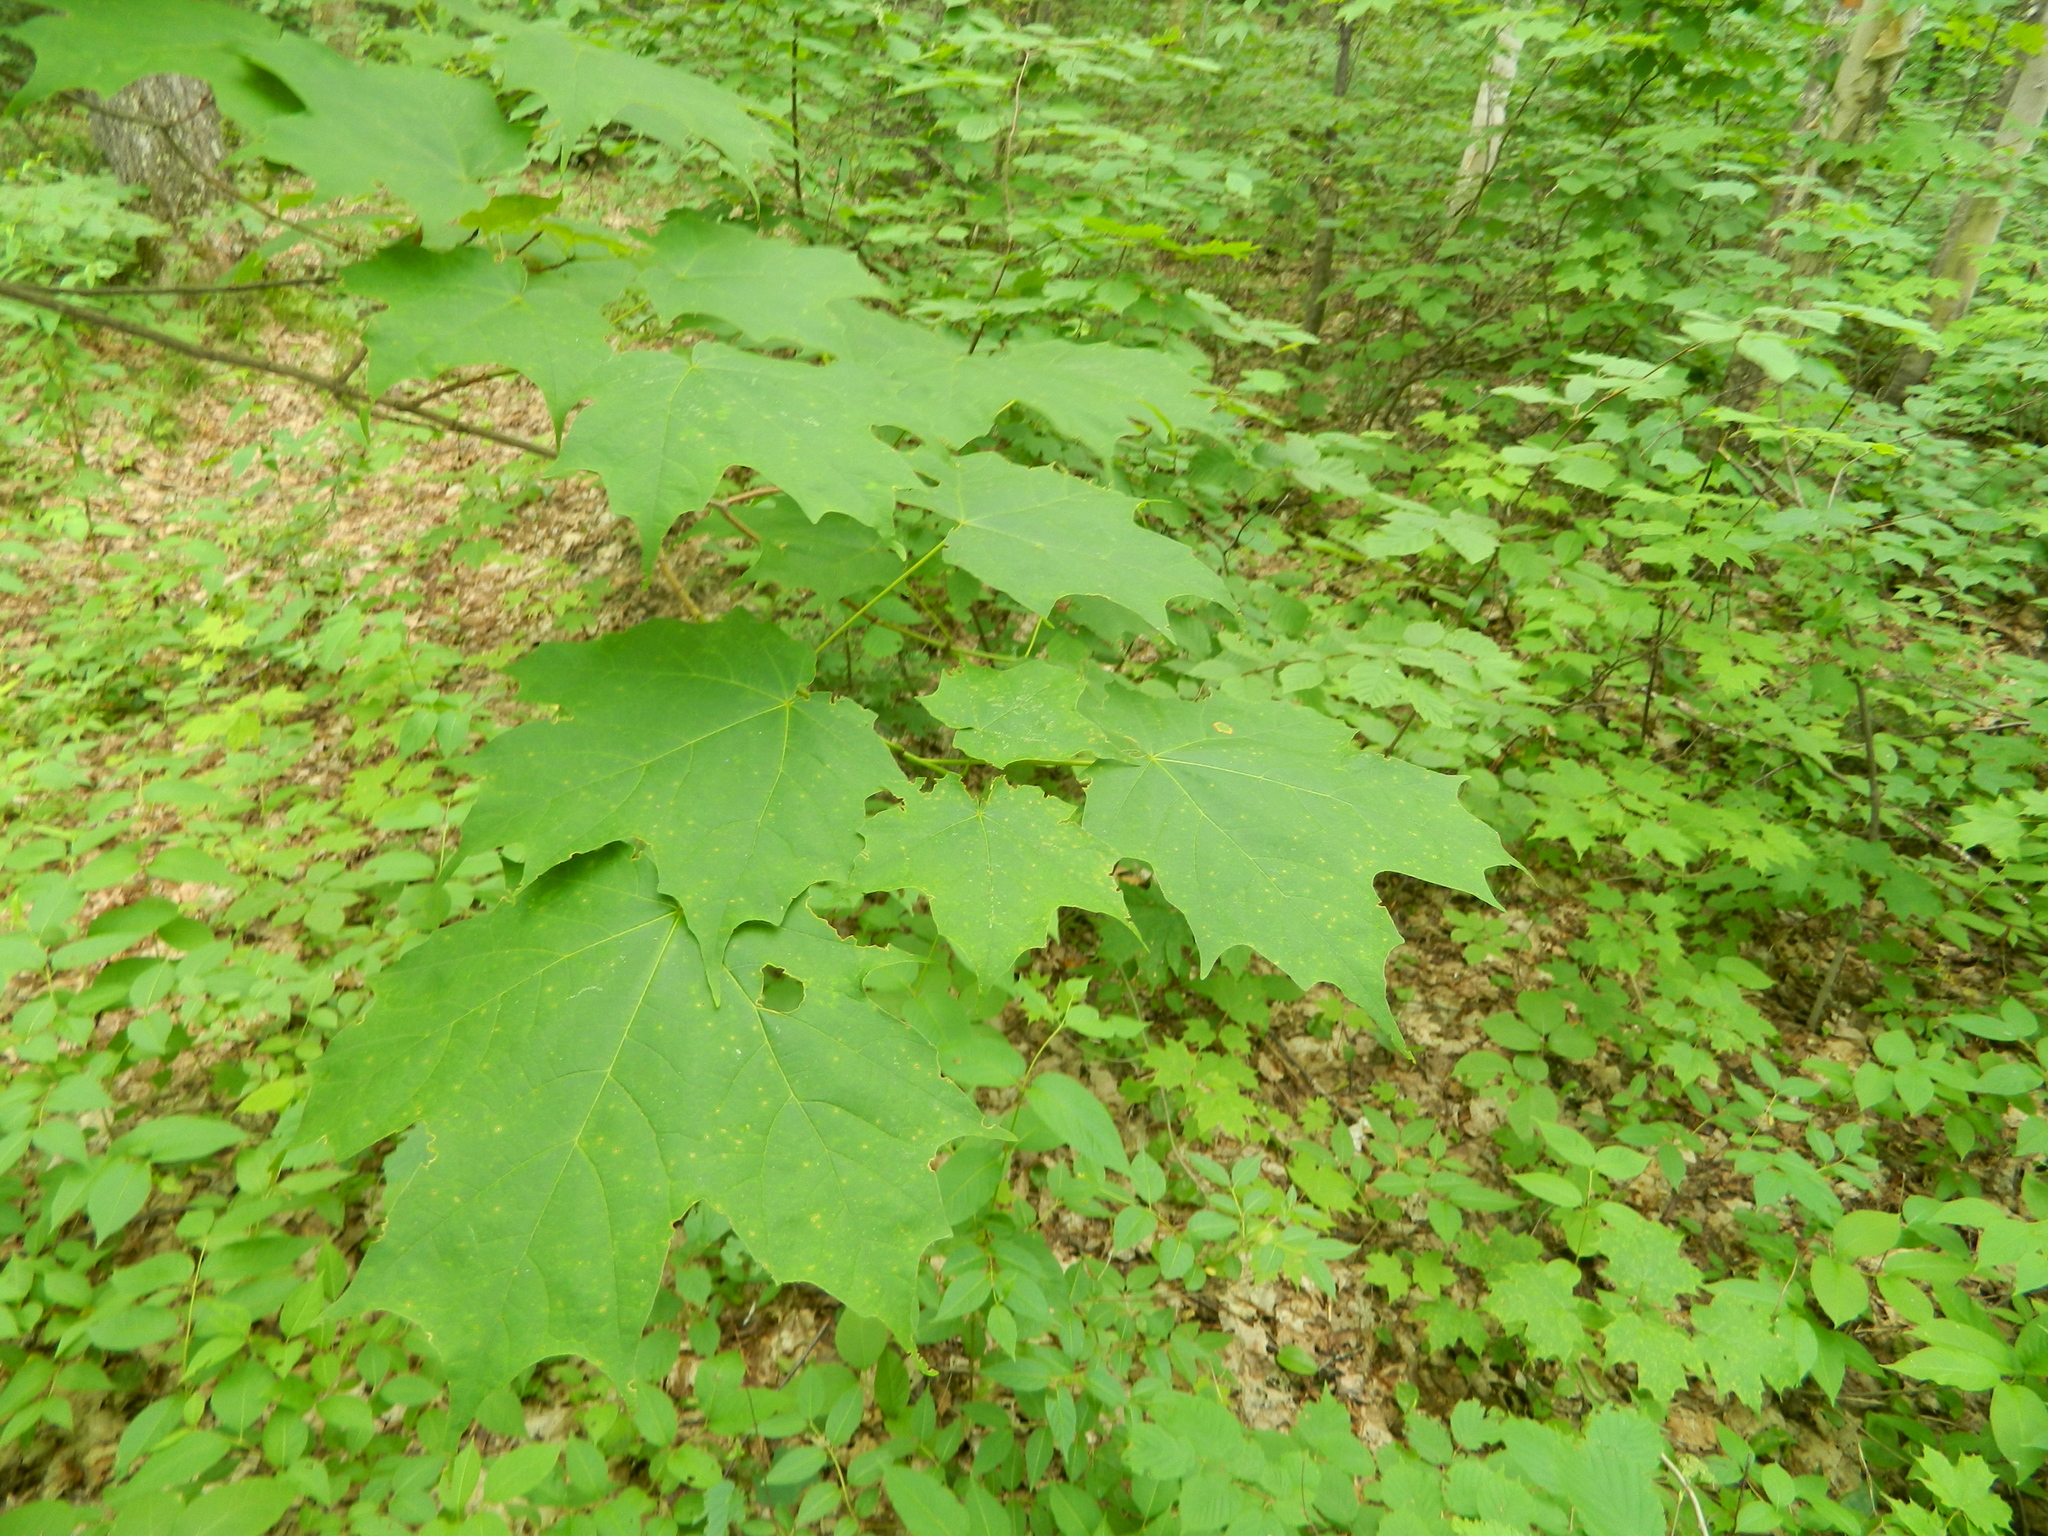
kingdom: Plantae
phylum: Tracheophyta
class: Magnoliopsida
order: Sapindales
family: Sapindaceae
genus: Acer
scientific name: Acer saccharum
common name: Sugar maple
